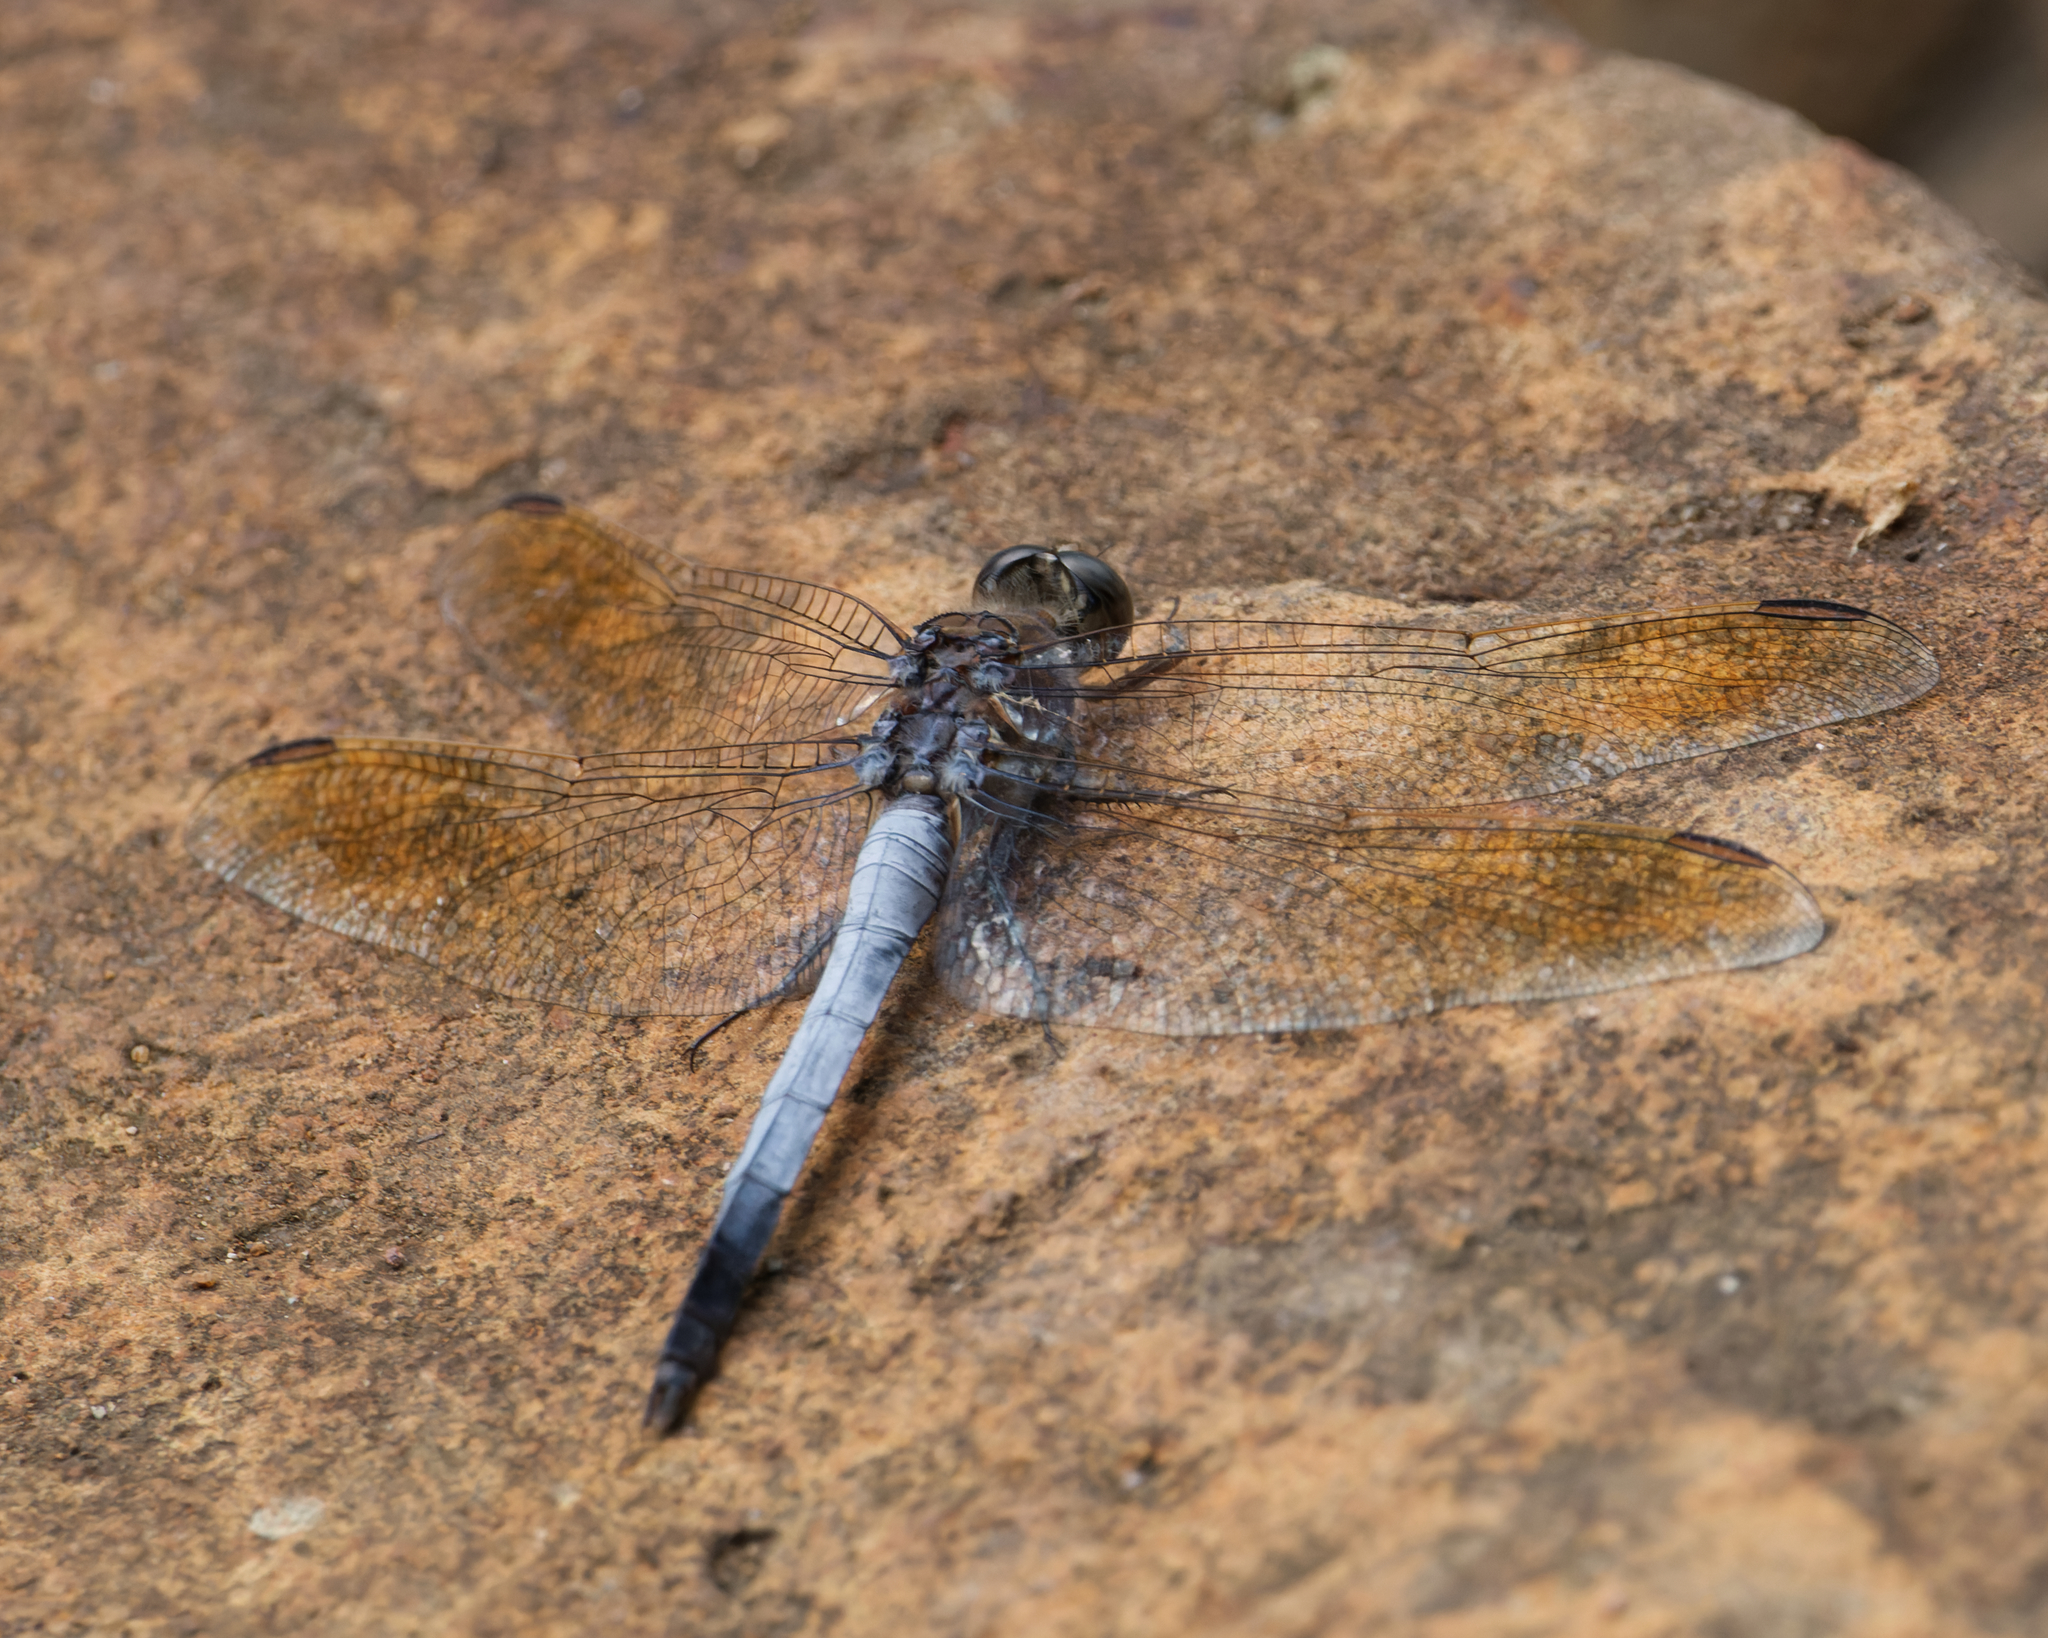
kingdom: Animalia
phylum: Arthropoda
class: Insecta
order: Odonata
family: Libellulidae
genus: Orthetrum
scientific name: Orthetrum caledonicum
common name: Blue skimmer
